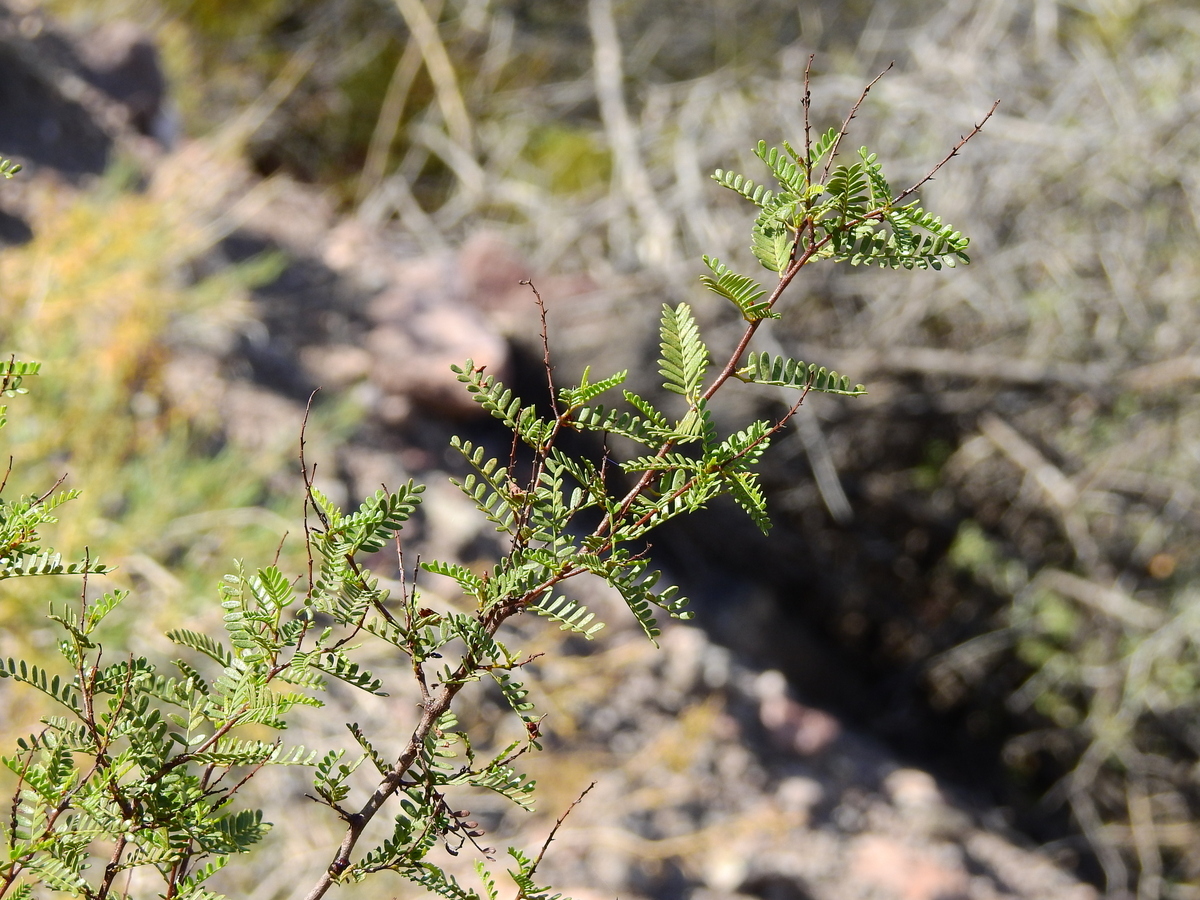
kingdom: Plantae
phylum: Tracheophyta
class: Magnoliopsida
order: Fabales
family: Fabaceae
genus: Zuccagnia
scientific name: Zuccagnia punctata
